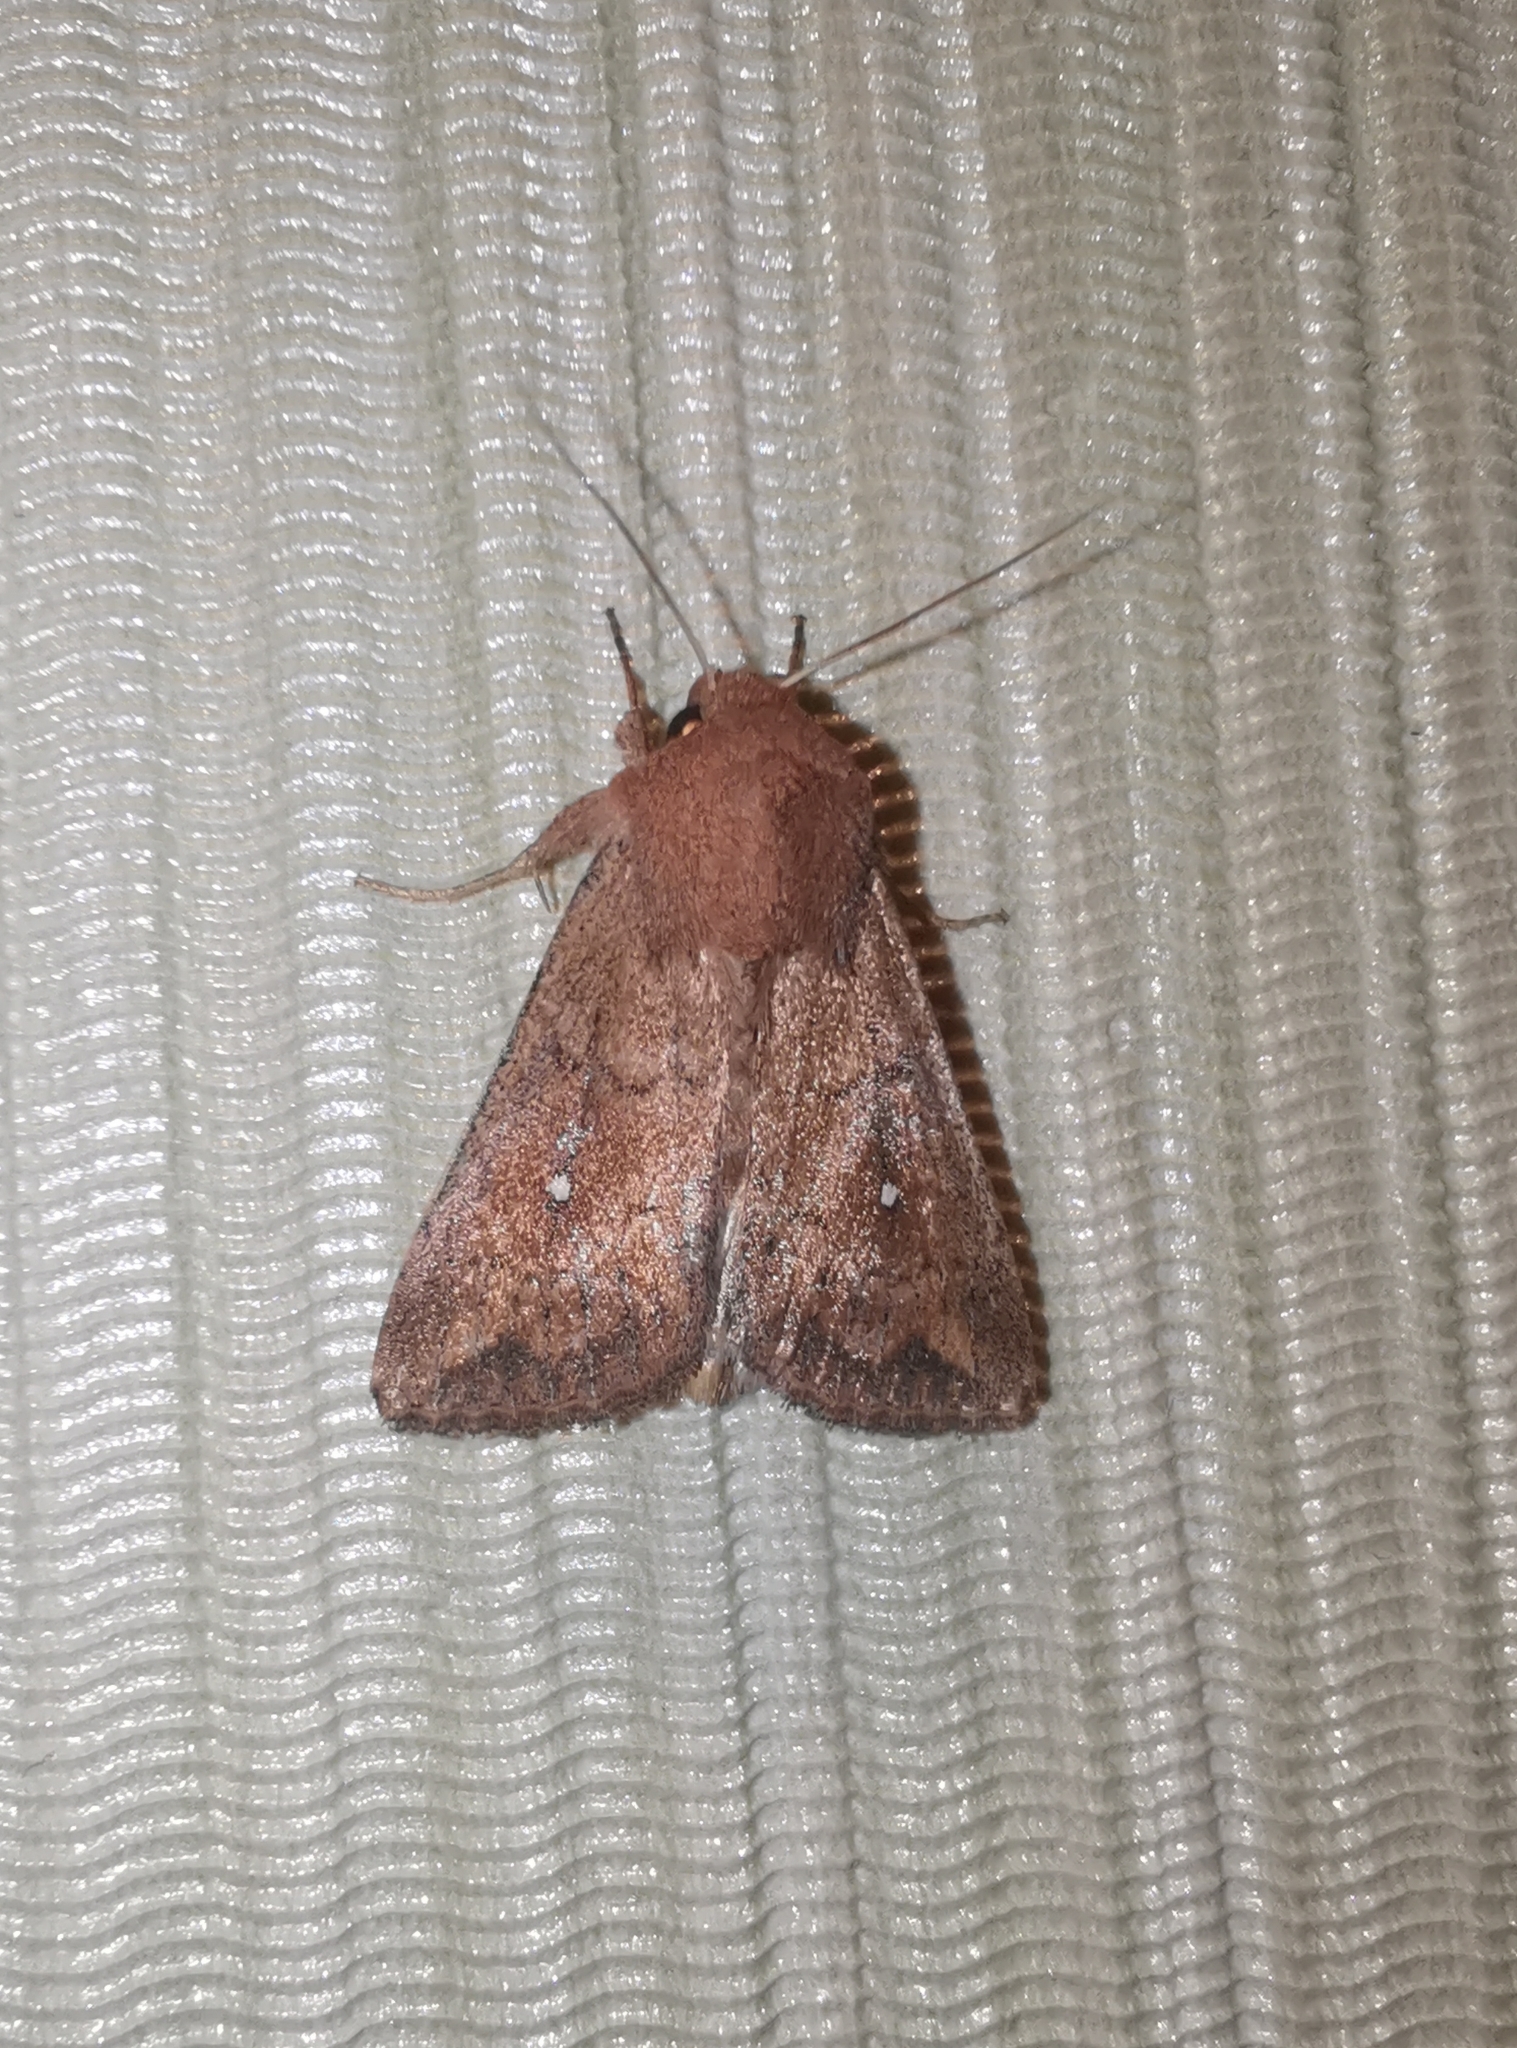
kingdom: Animalia
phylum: Arthropoda
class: Insecta
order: Lepidoptera
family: Noctuidae
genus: Mythimna
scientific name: Mythimna albipuncta
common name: White-point
